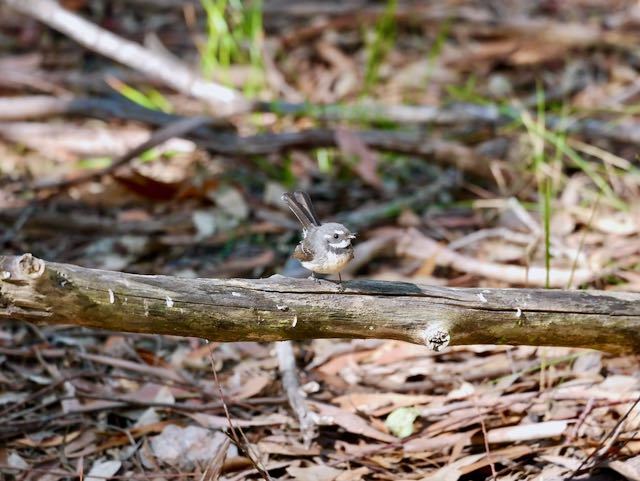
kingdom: Animalia
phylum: Chordata
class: Aves
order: Passeriformes
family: Rhipiduridae
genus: Rhipidura
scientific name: Rhipidura albiscapa
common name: Grey fantail
